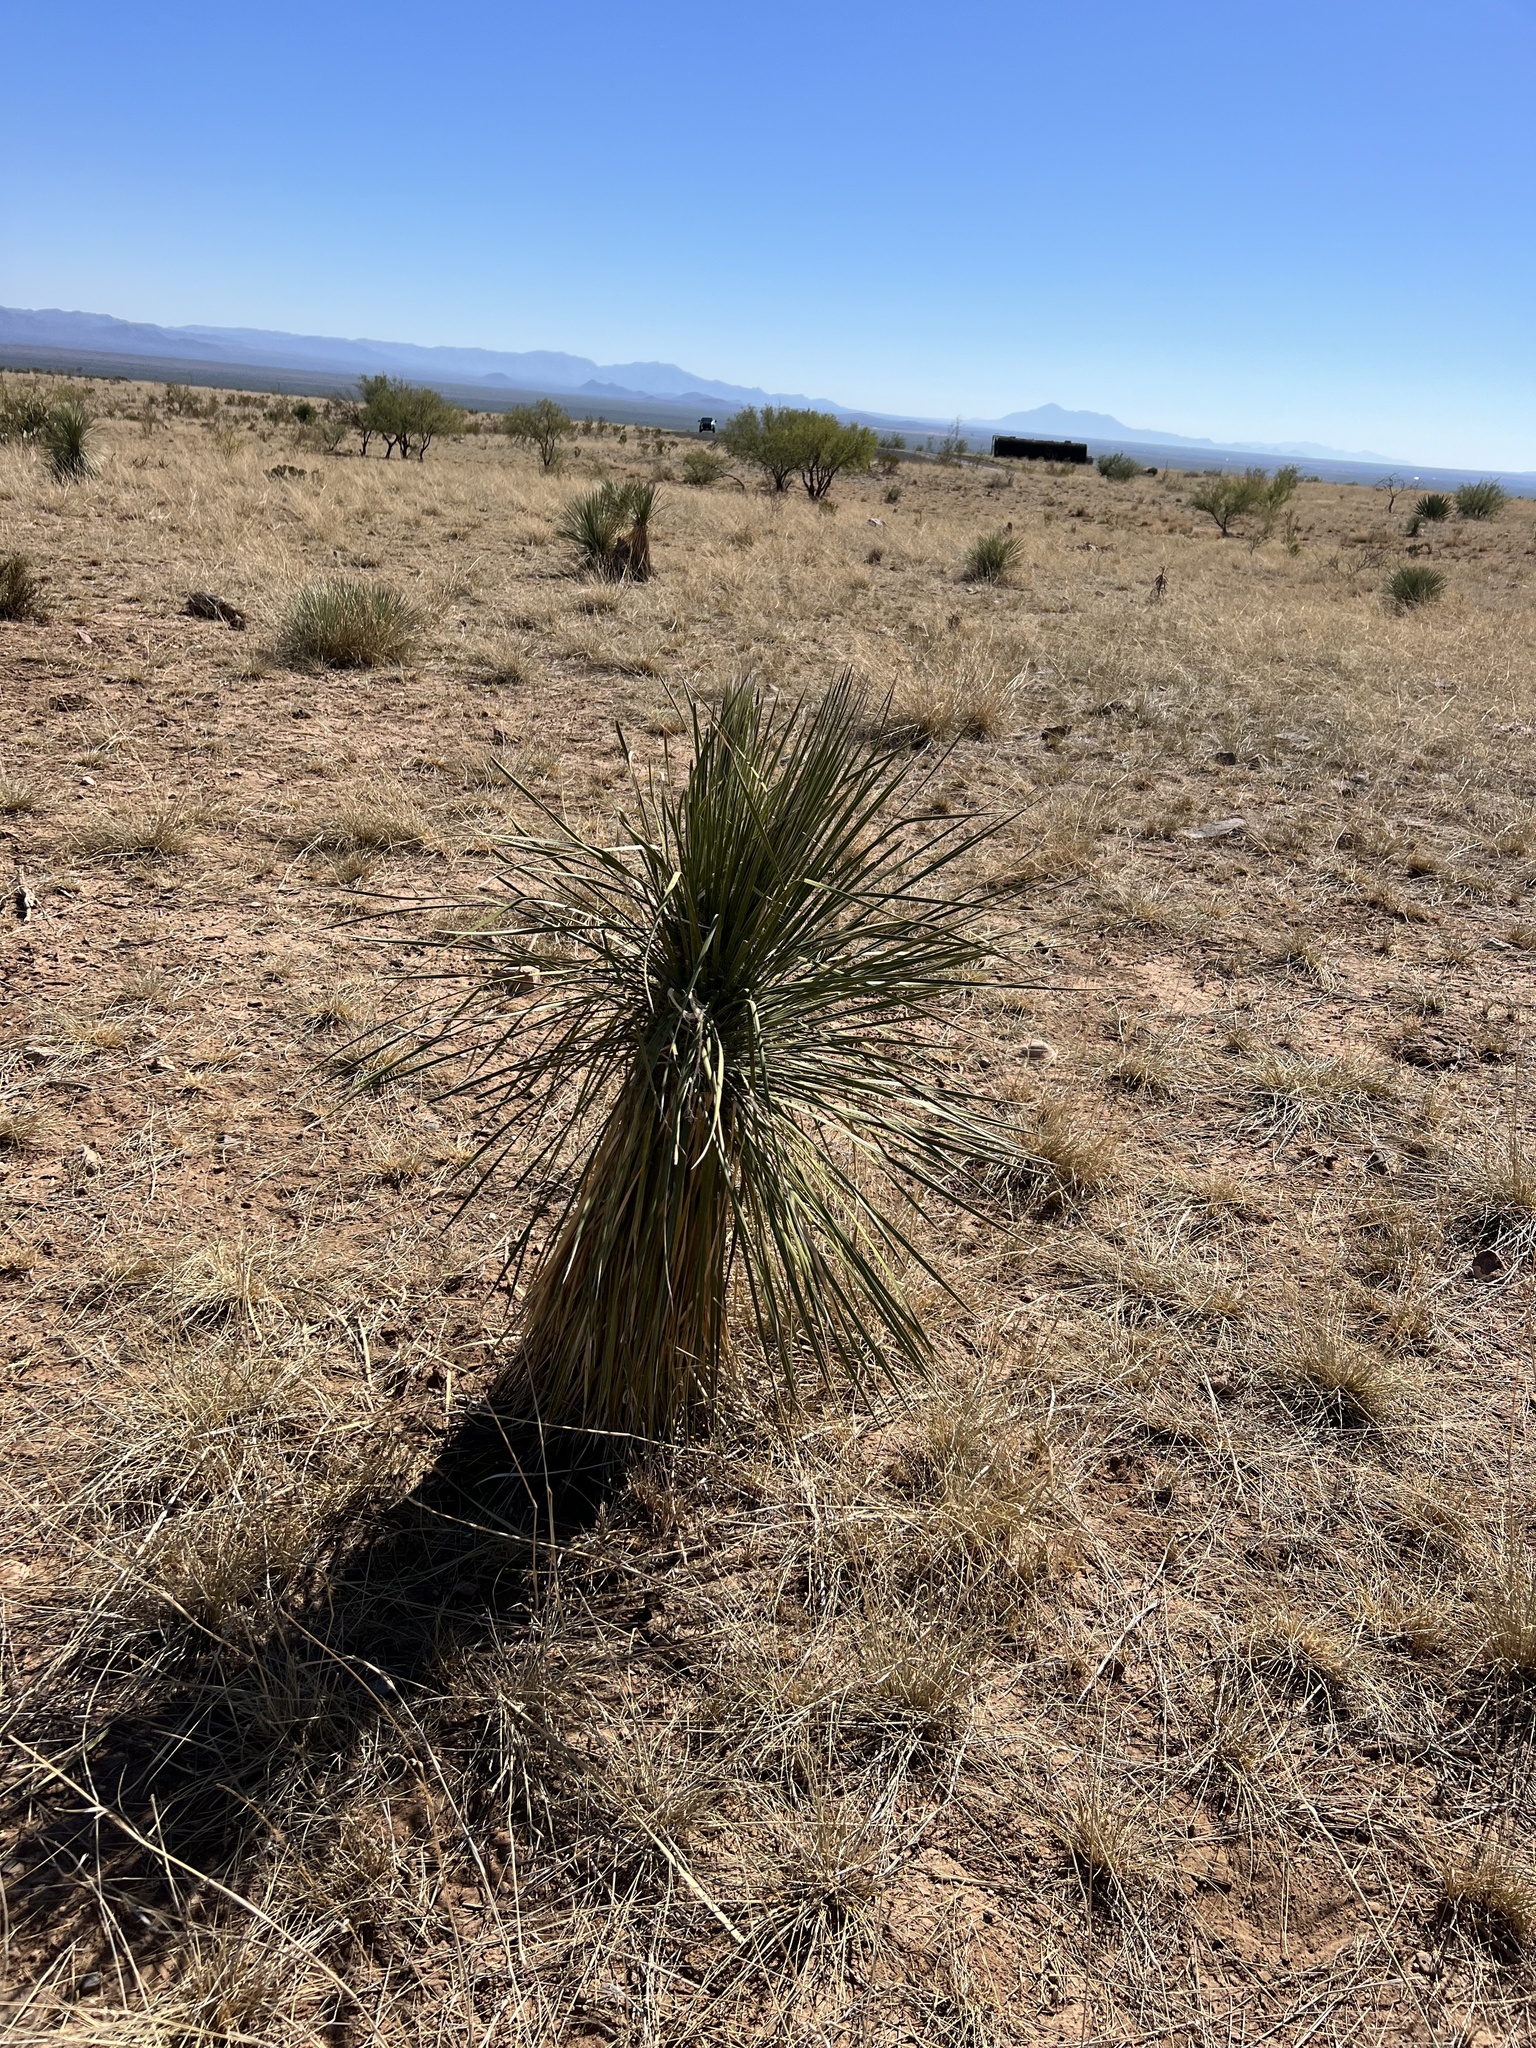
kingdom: Plantae
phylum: Tracheophyta
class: Liliopsida
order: Asparagales
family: Asparagaceae
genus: Yucca
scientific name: Yucca elata
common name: Palmella
